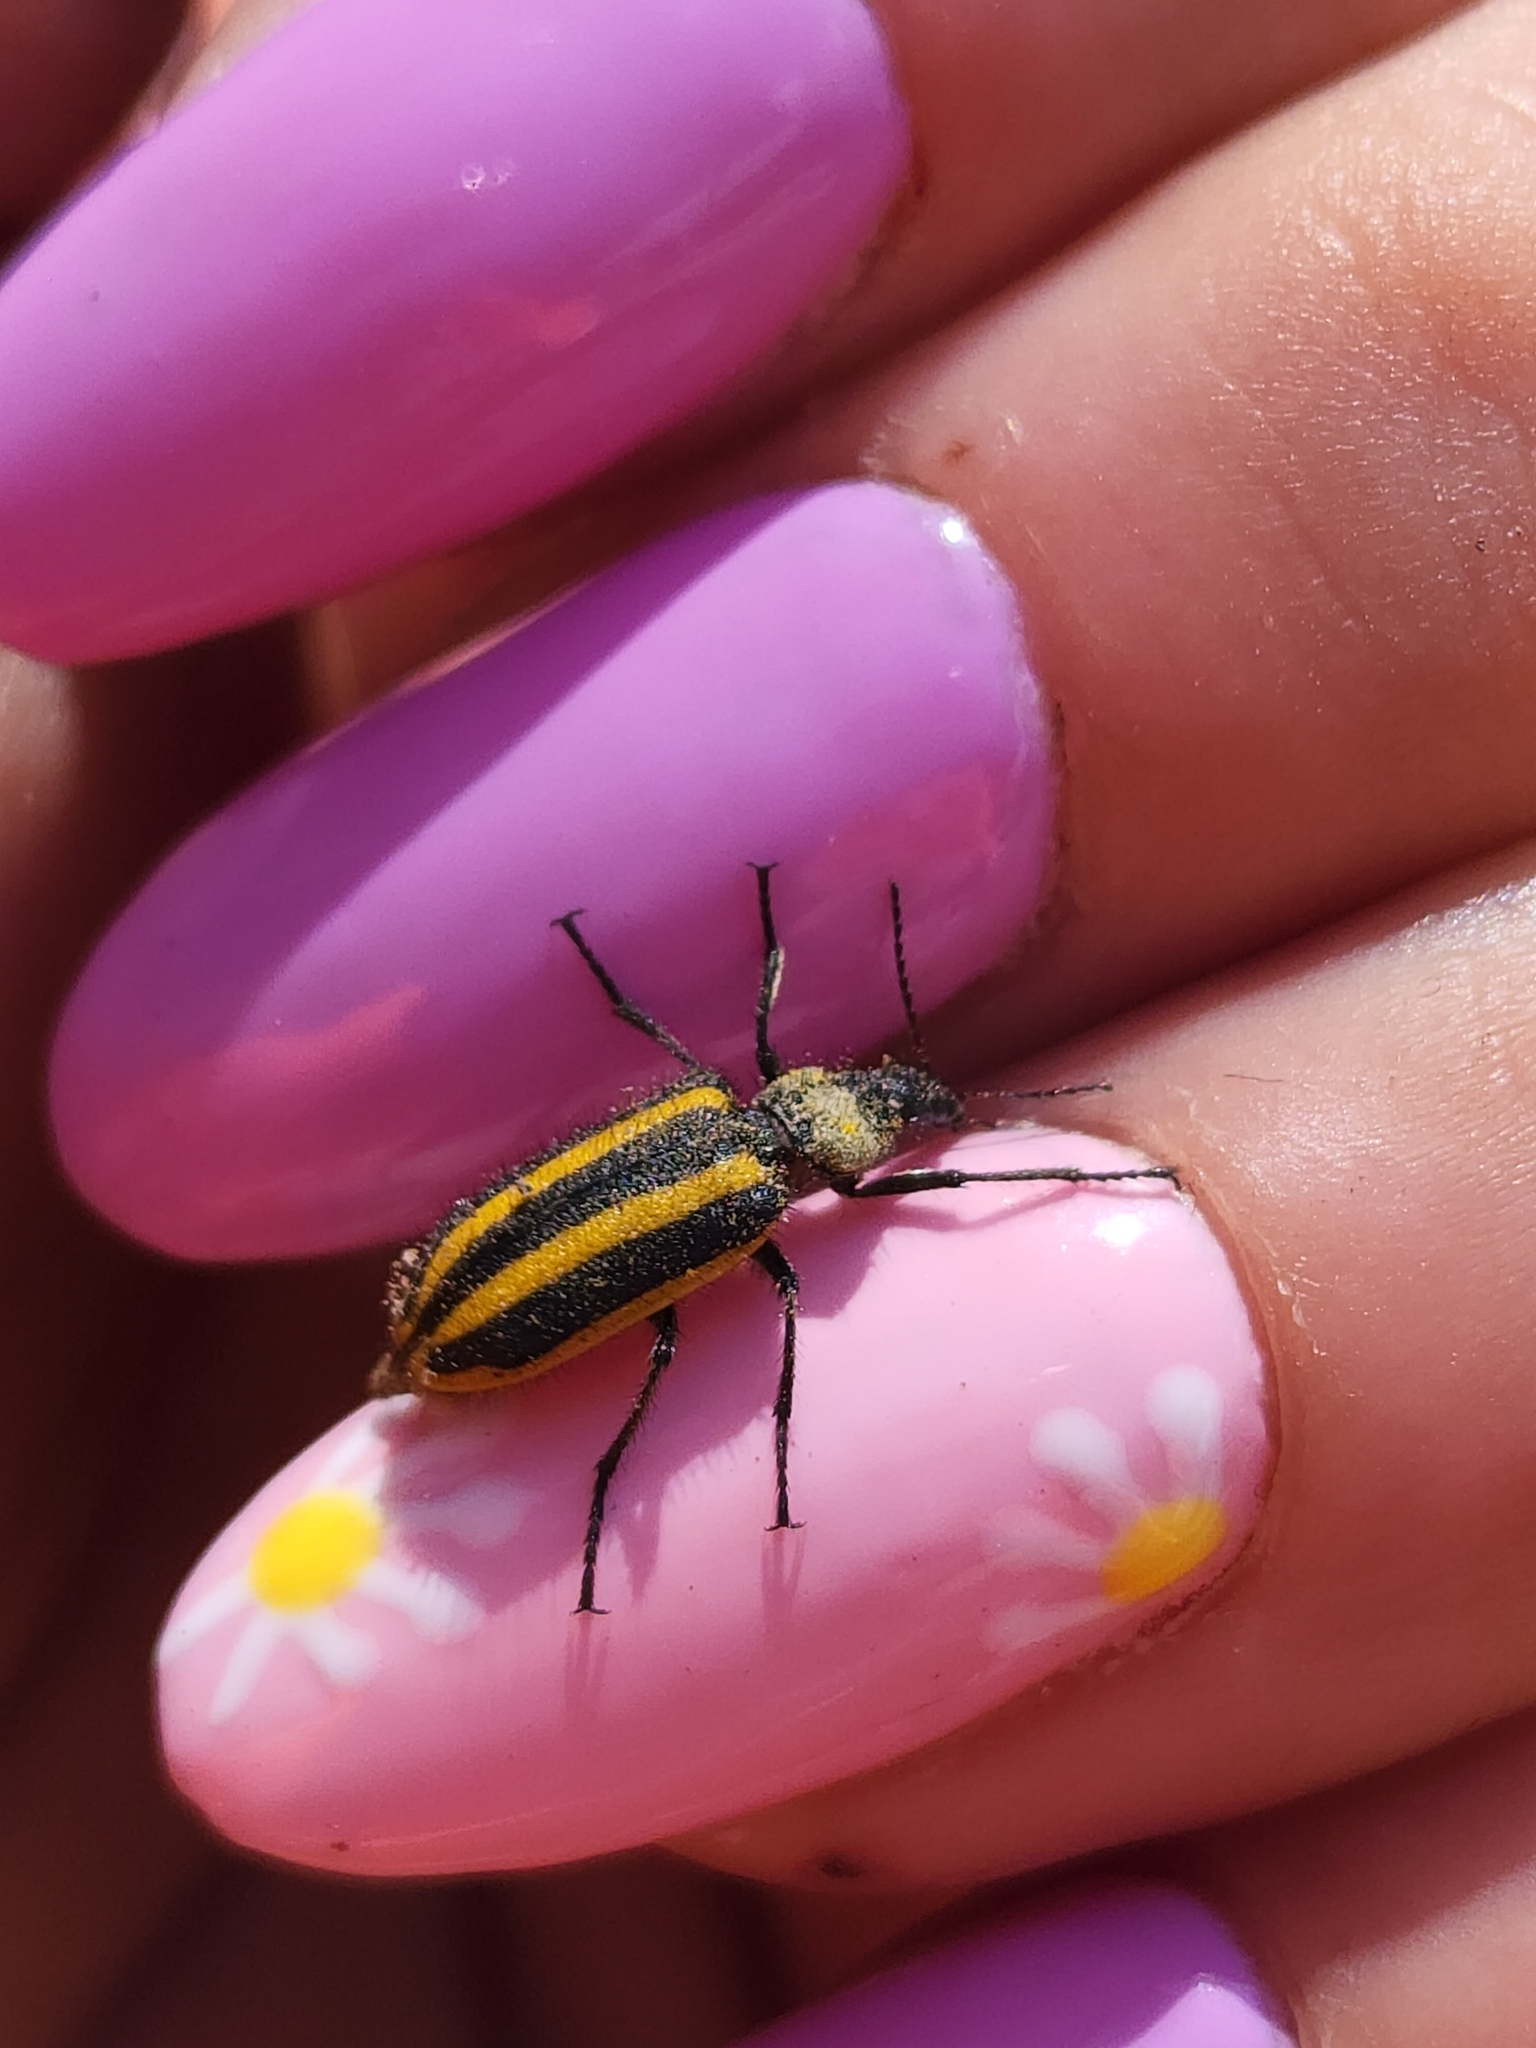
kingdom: Animalia
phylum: Arthropoda
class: Insecta
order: Coleoptera
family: Melyridae
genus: Astylus
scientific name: Astylus vittaticollis
